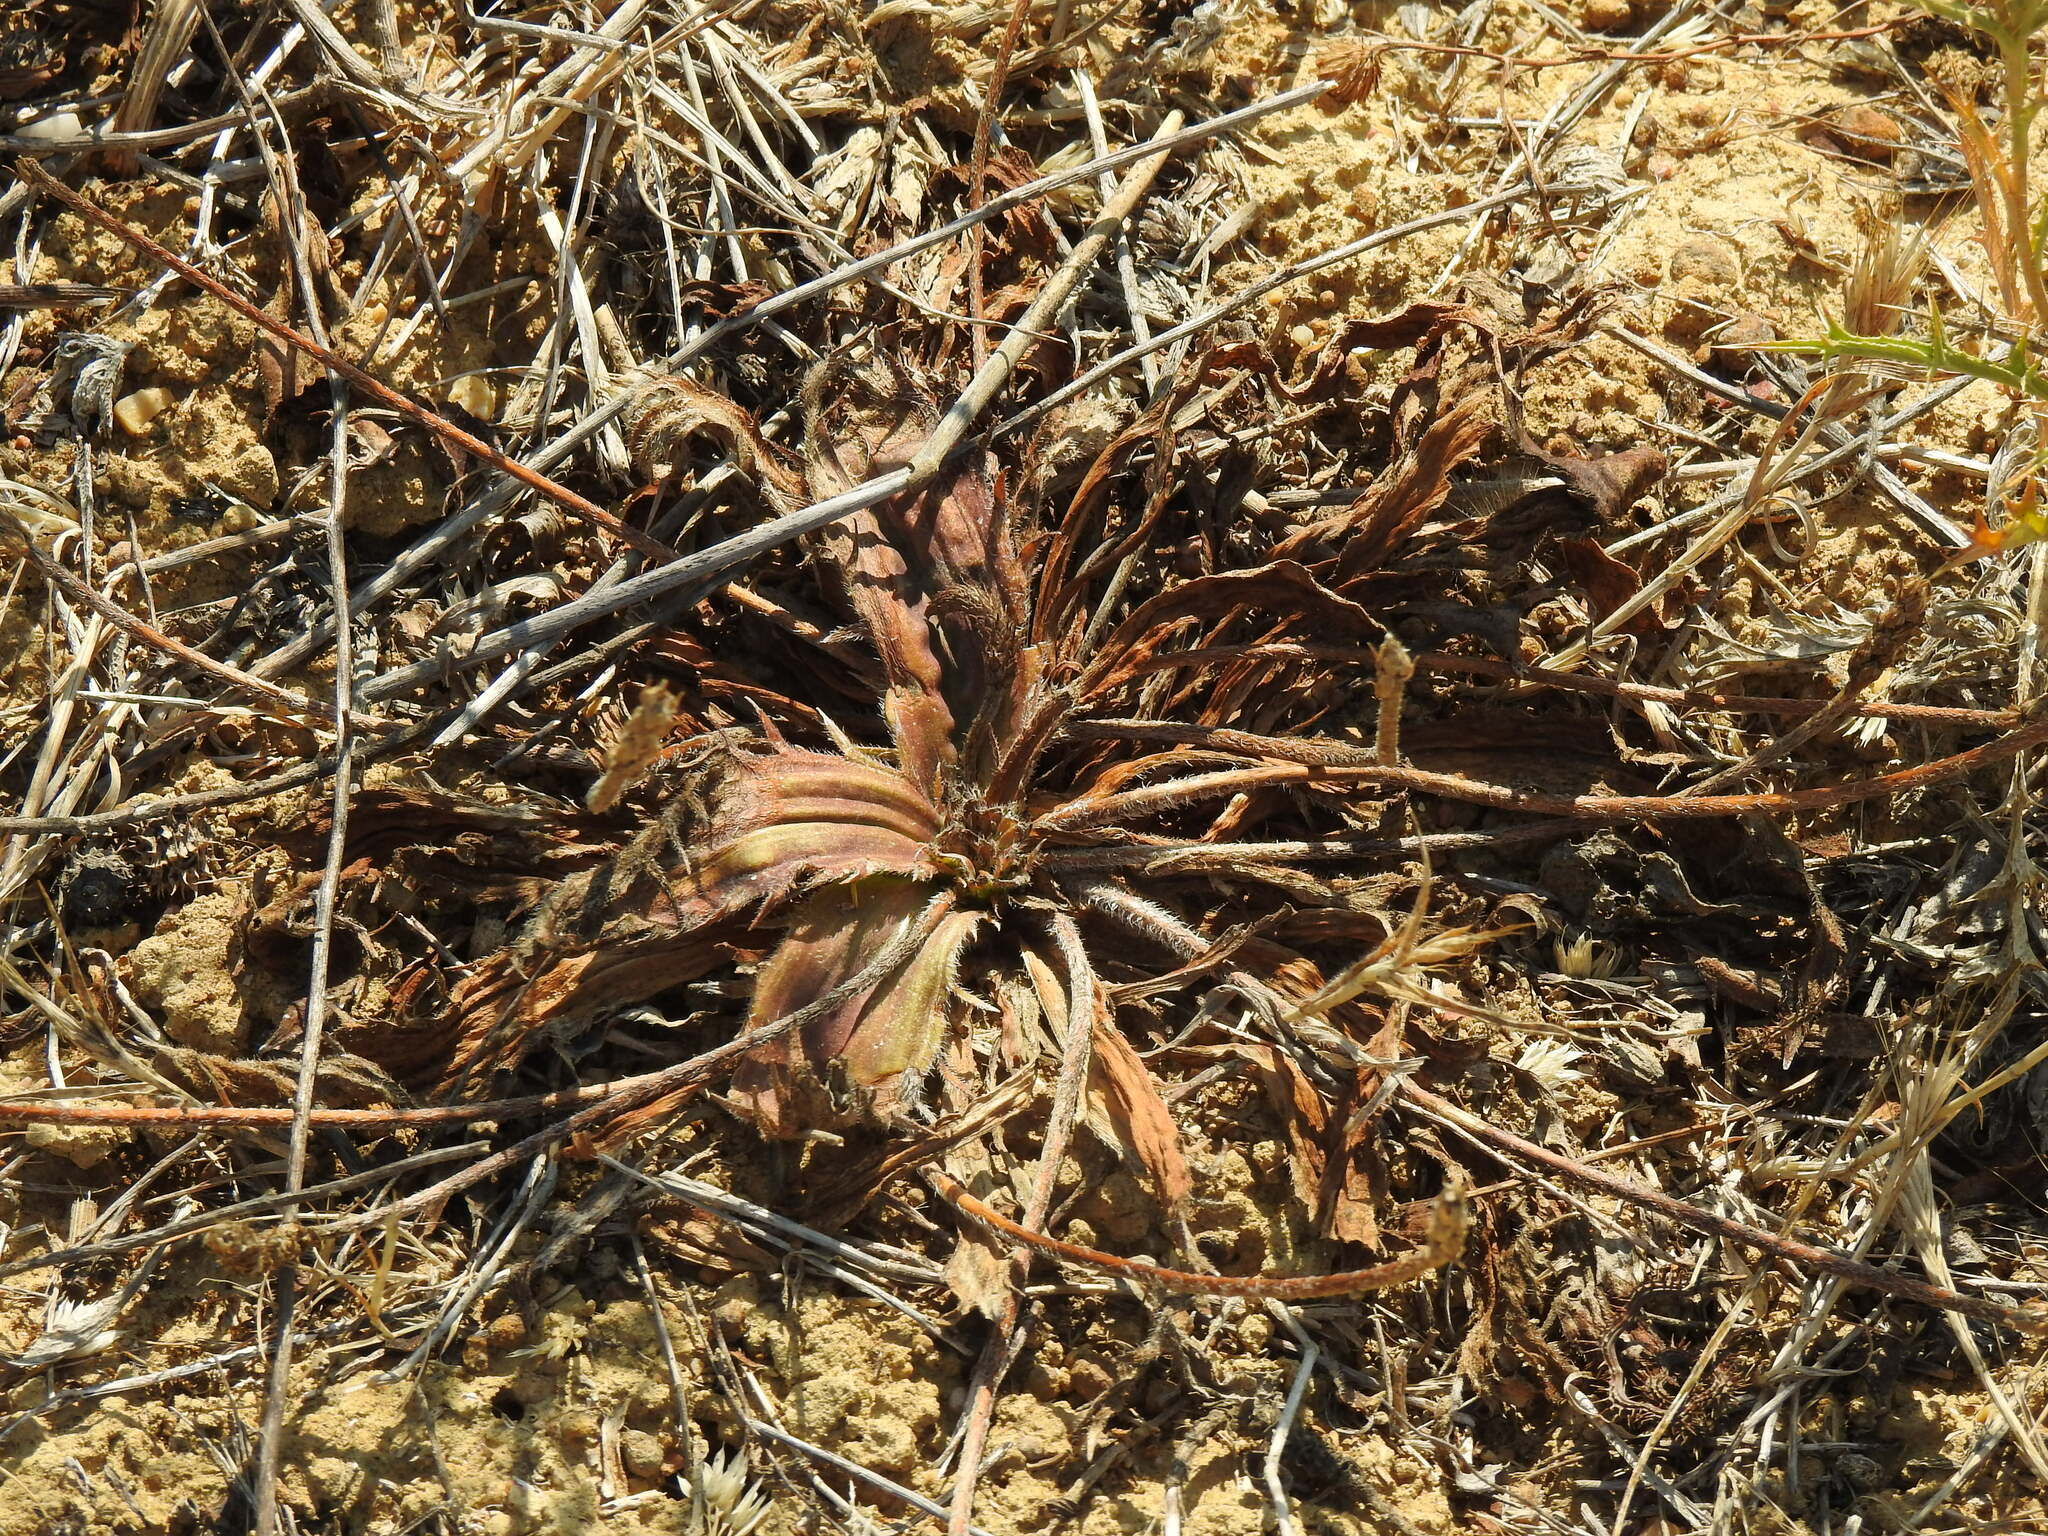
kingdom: Plantae
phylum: Tracheophyta
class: Magnoliopsida
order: Lamiales
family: Plantaginaceae
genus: Plantago
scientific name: Plantago serraria
